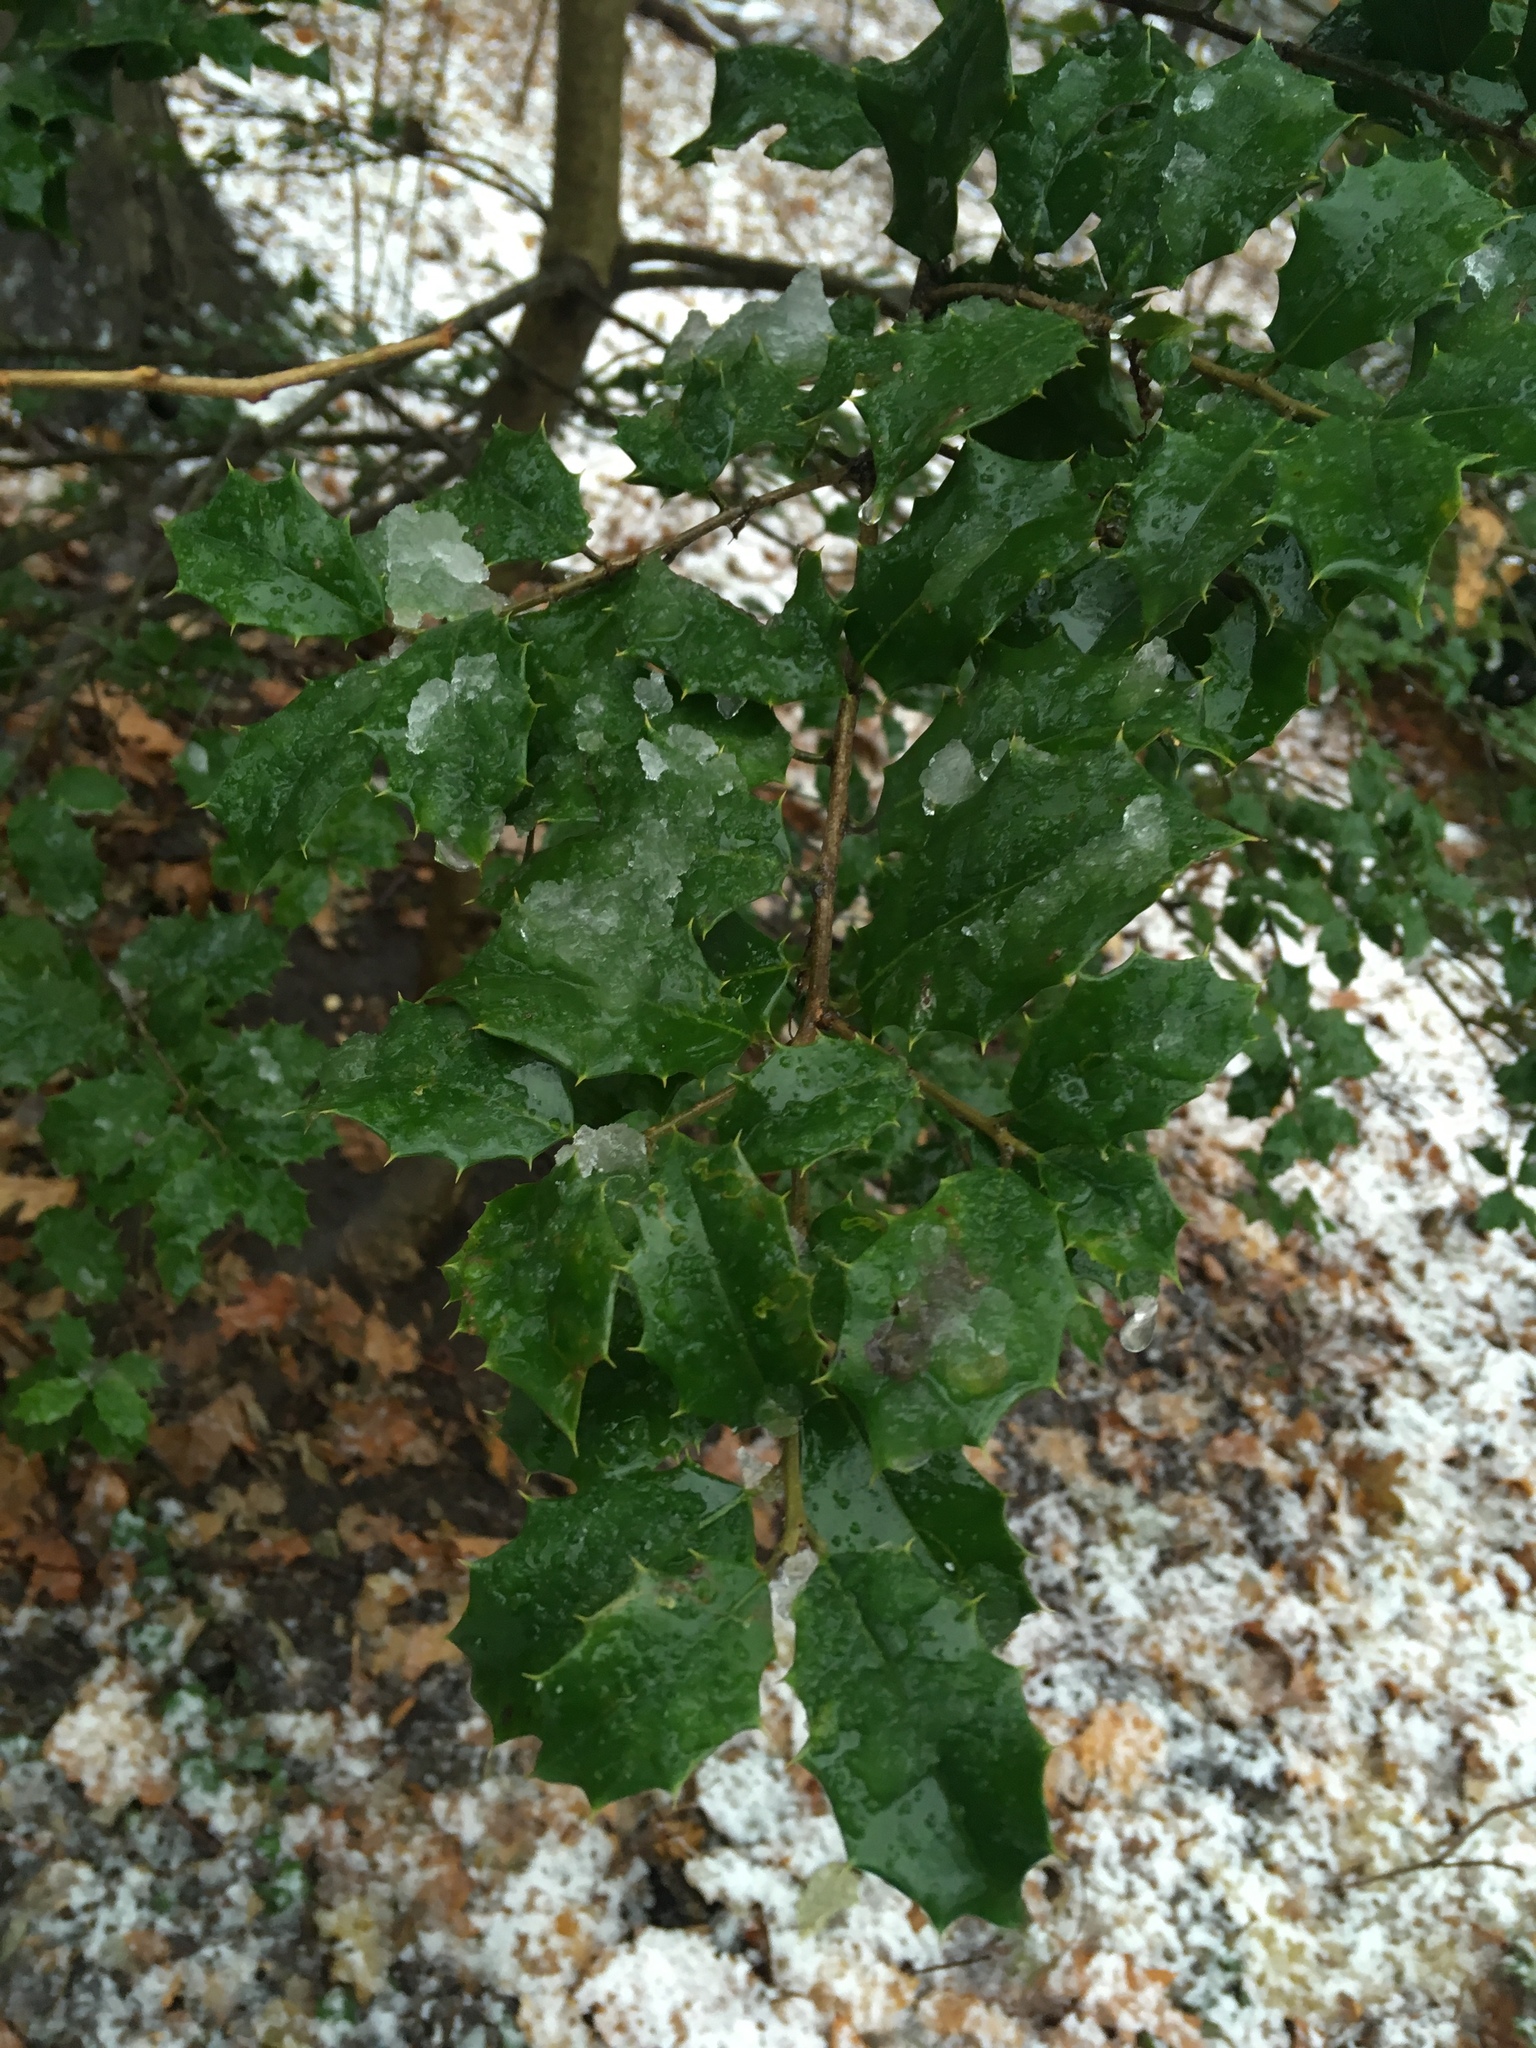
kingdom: Plantae
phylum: Tracheophyta
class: Magnoliopsida
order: Aquifoliales
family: Aquifoliaceae
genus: Ilex
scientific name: Ilex opaca
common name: American holly
